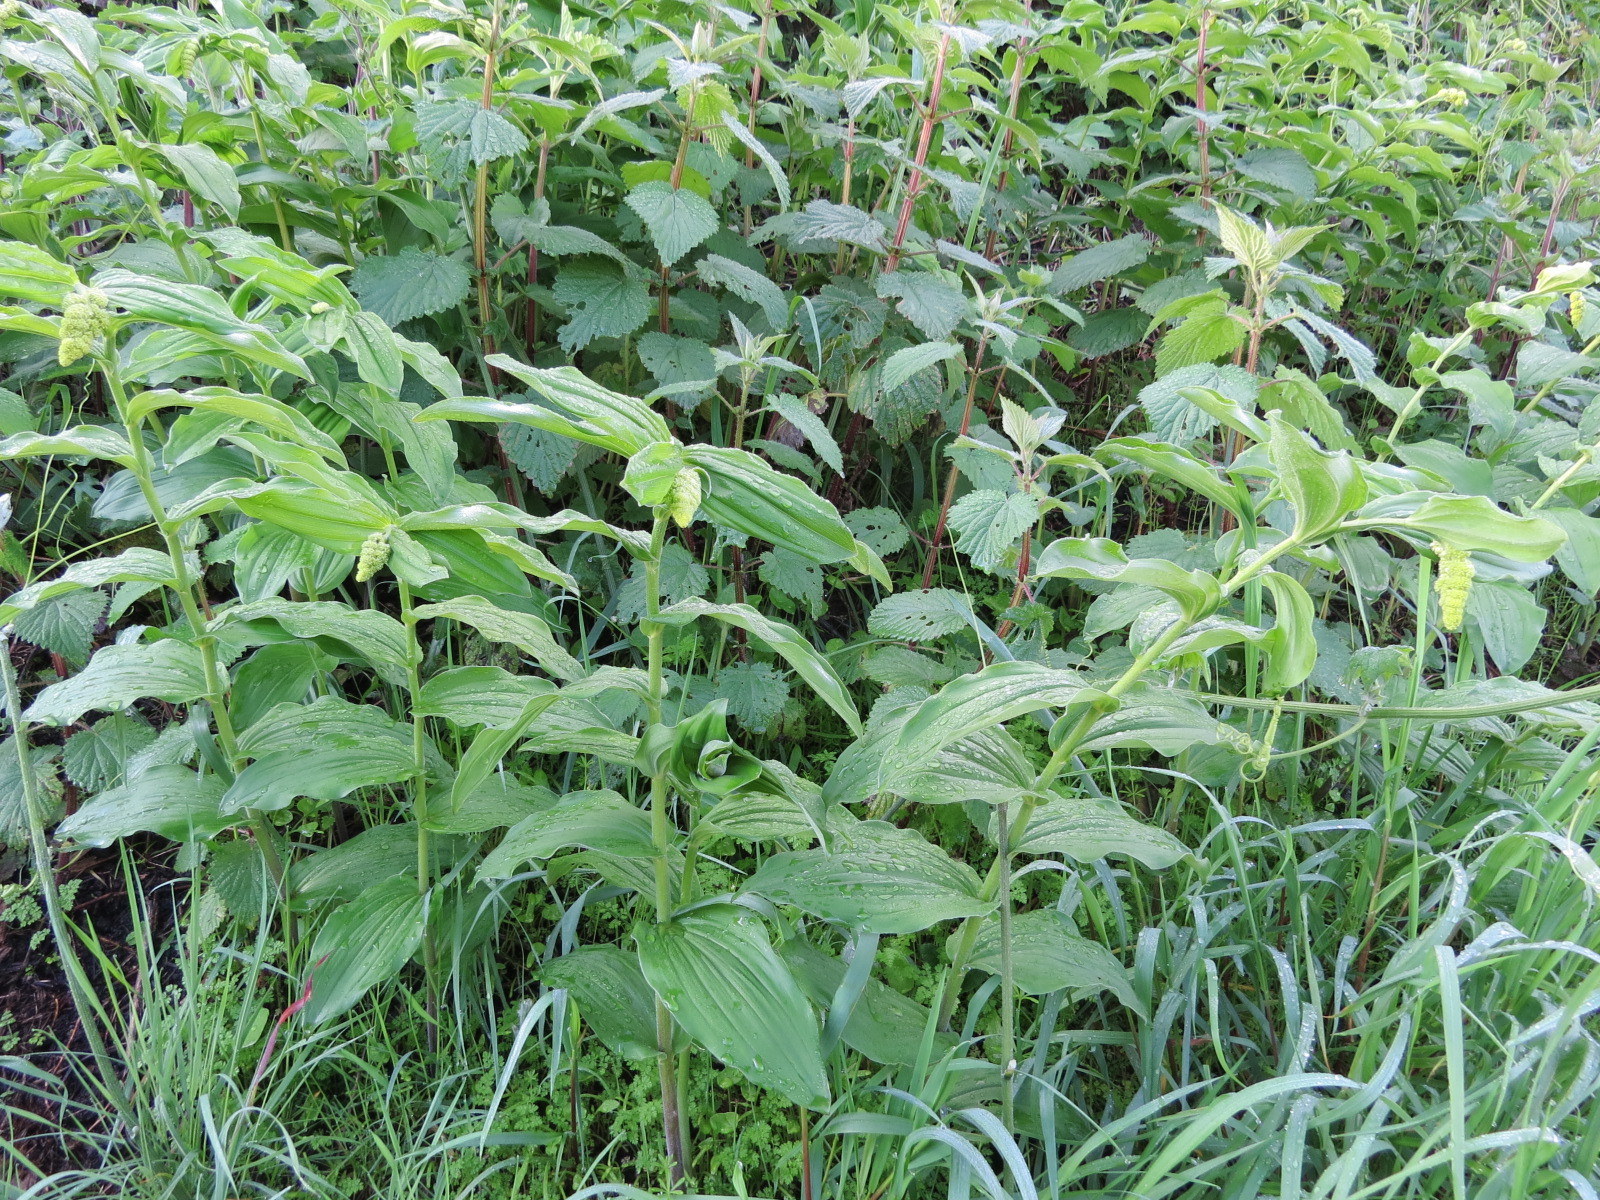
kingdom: Plantae
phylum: Tracheophyta
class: Liliopsida
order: Asparagales
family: Asparagaceae
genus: Maianthemum
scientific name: Maianthemum racemosum
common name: False spikenard
